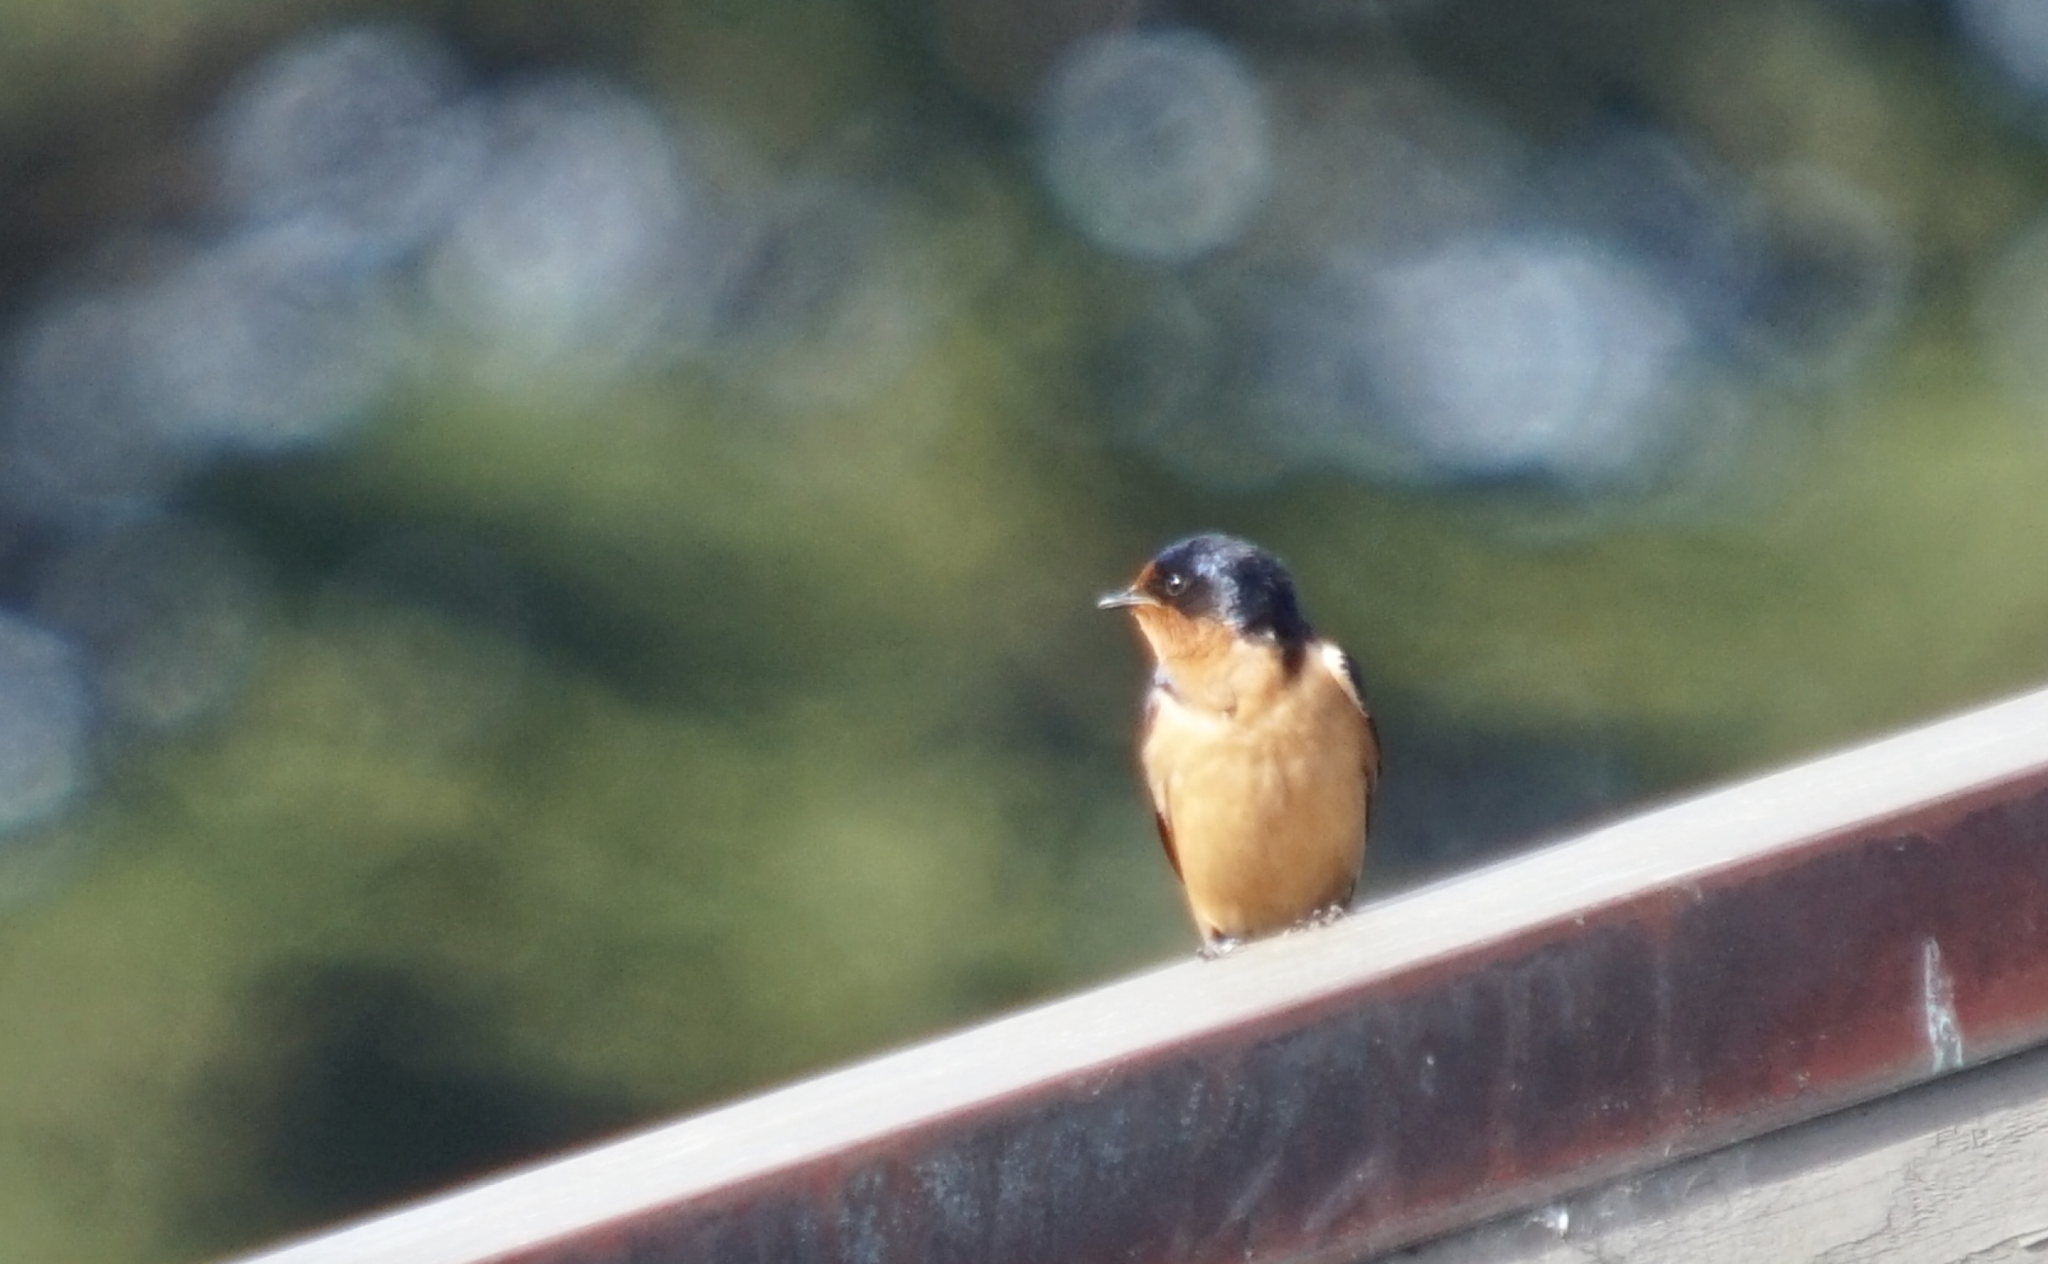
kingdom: Animalia
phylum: Chordata
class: Aves
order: Passeriformes
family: Hirundinidae
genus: Hirundo
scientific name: Hirundo rustica
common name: Barn swallow
